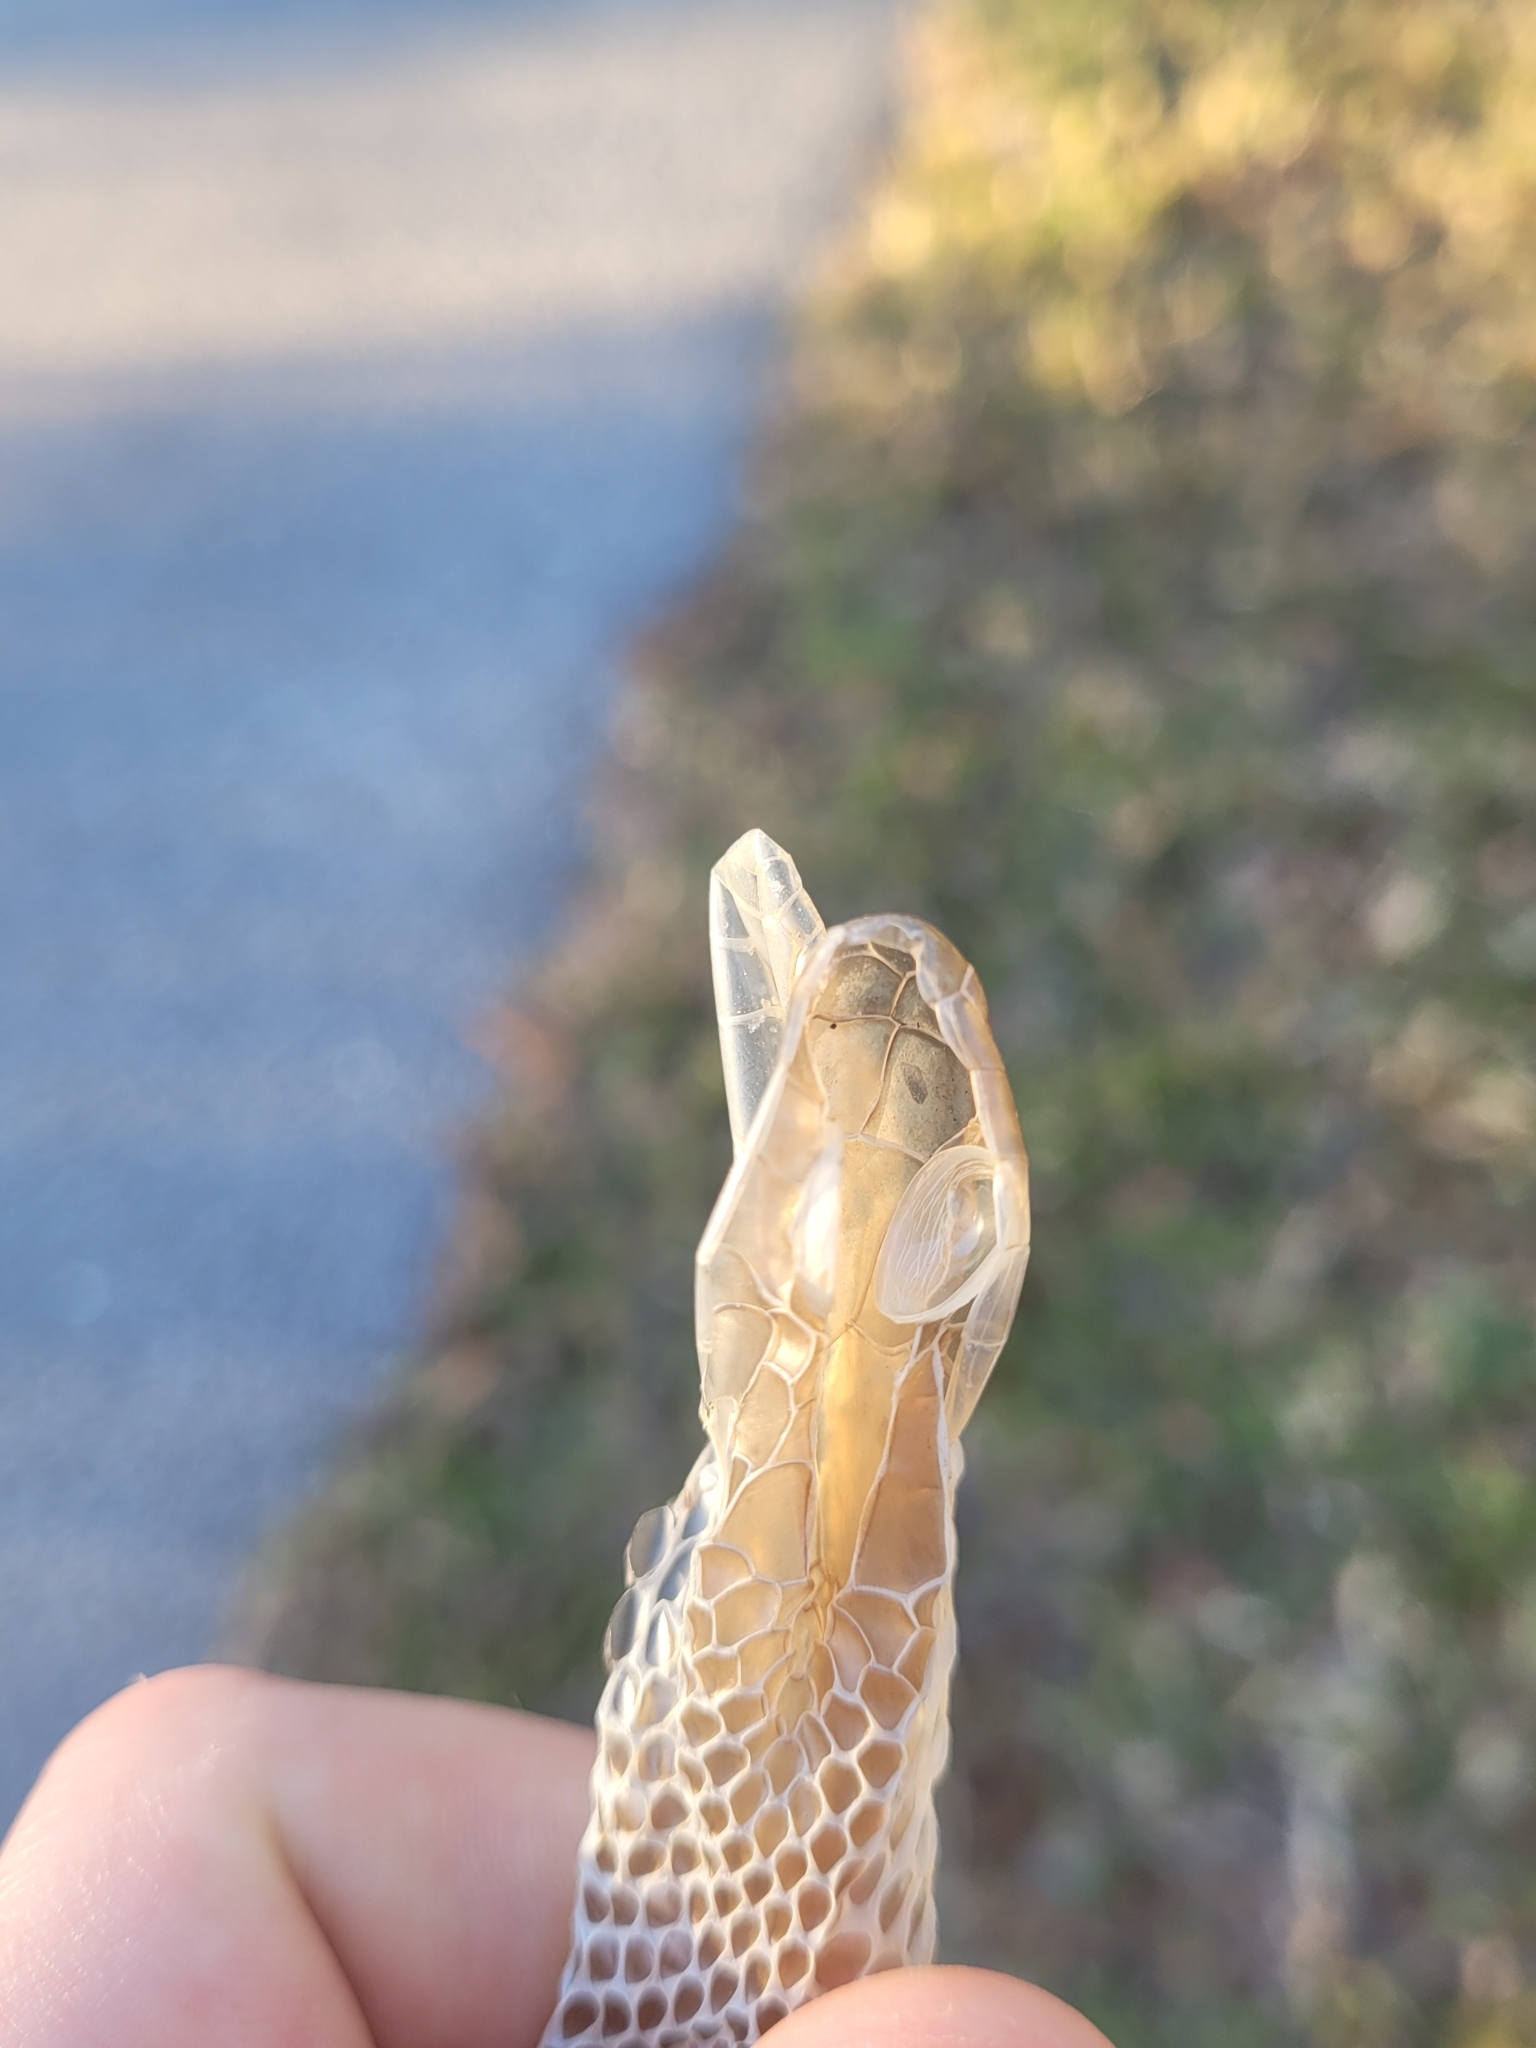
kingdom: Animalia
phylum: Chordata
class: Squamata
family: Colubridae
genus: Coluber
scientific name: Coluber constrictor
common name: Eastern racer
